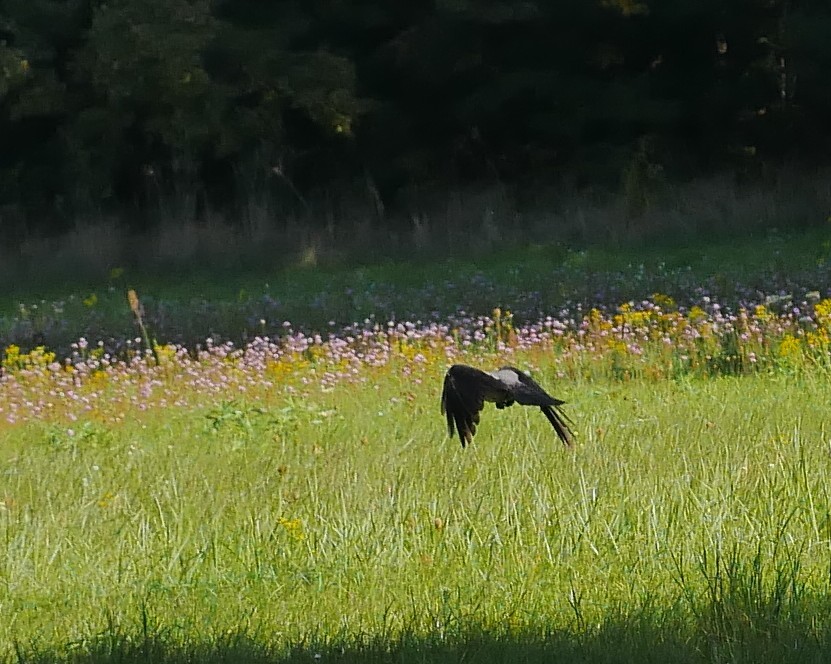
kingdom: Animalia
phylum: Chordata
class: Aves
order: Passeriformes
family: Corvidae
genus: Corvus
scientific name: Corvus cornix
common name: Hooded crow
